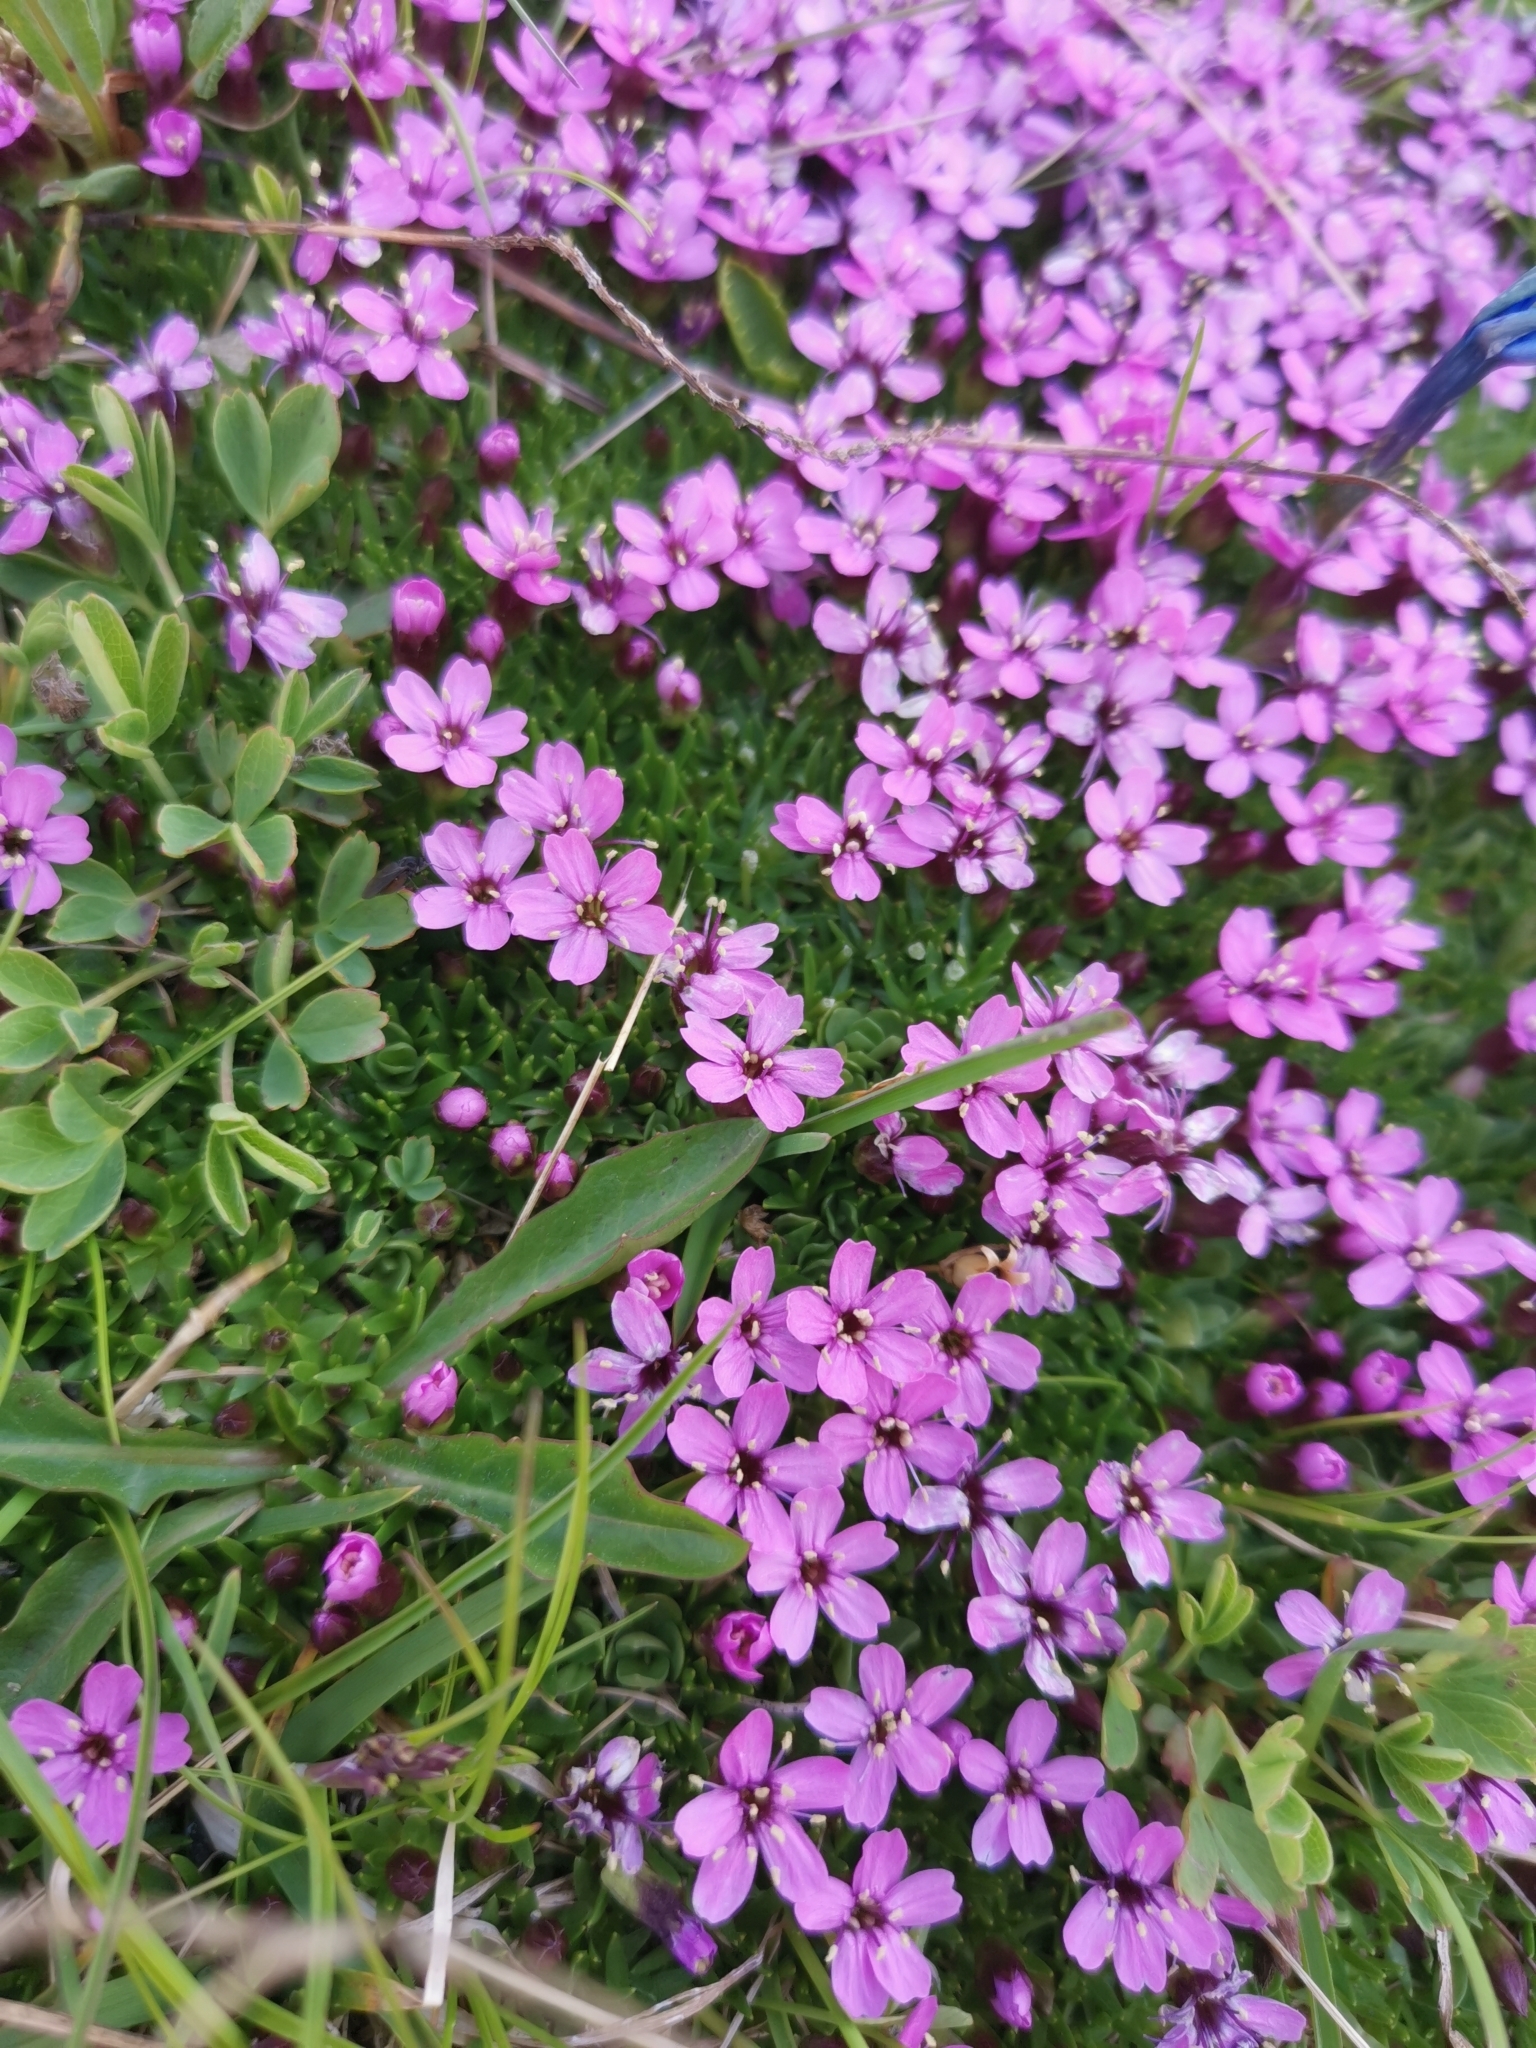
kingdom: Plantae
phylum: Tracheophyta
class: Magnoliopsida
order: Caryophyllales
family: Caryophyllaceae
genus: Silene
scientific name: Silene acaulis
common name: Moss campion
